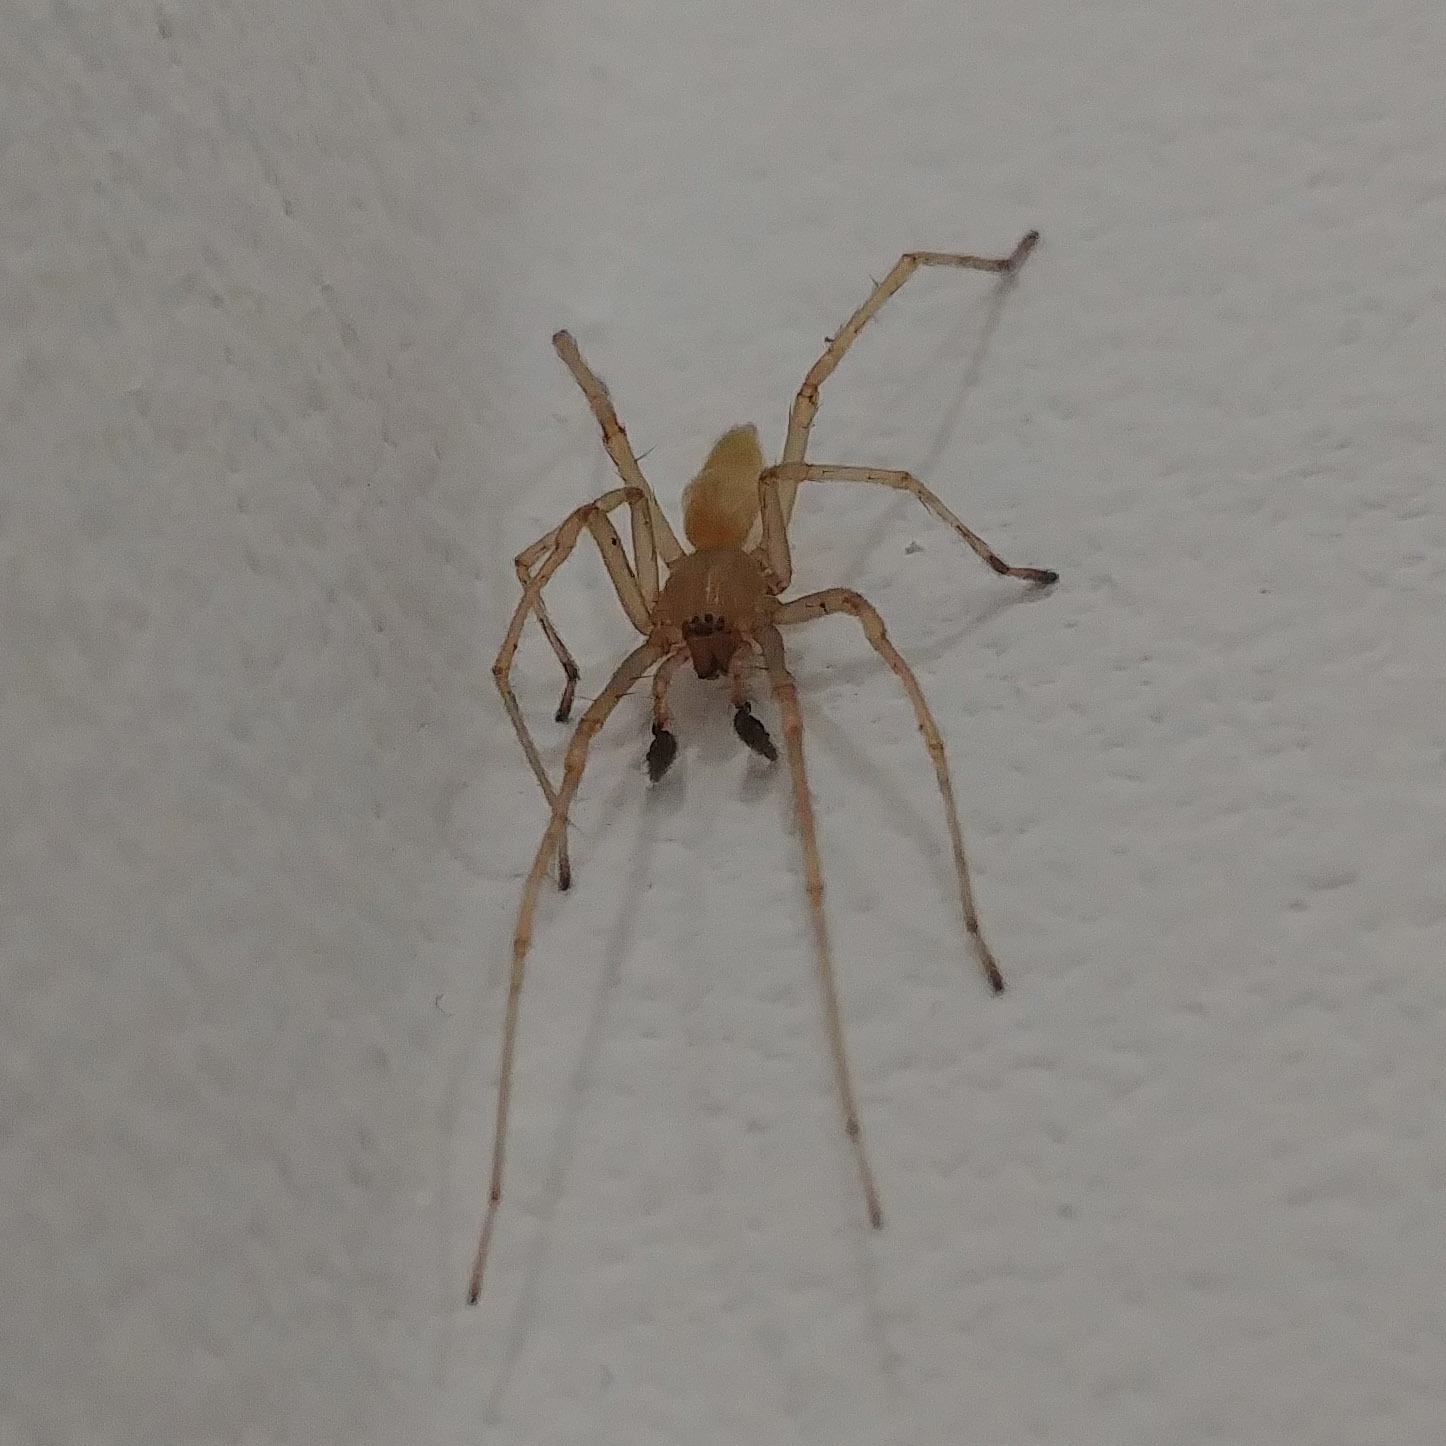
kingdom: Animalia
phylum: Arthropoda
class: Arachnida
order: Araneae
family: Cheiracanthiidae
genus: Cheiracanthium
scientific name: Cheiracanthium mildei
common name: Northern yellow sac spider
